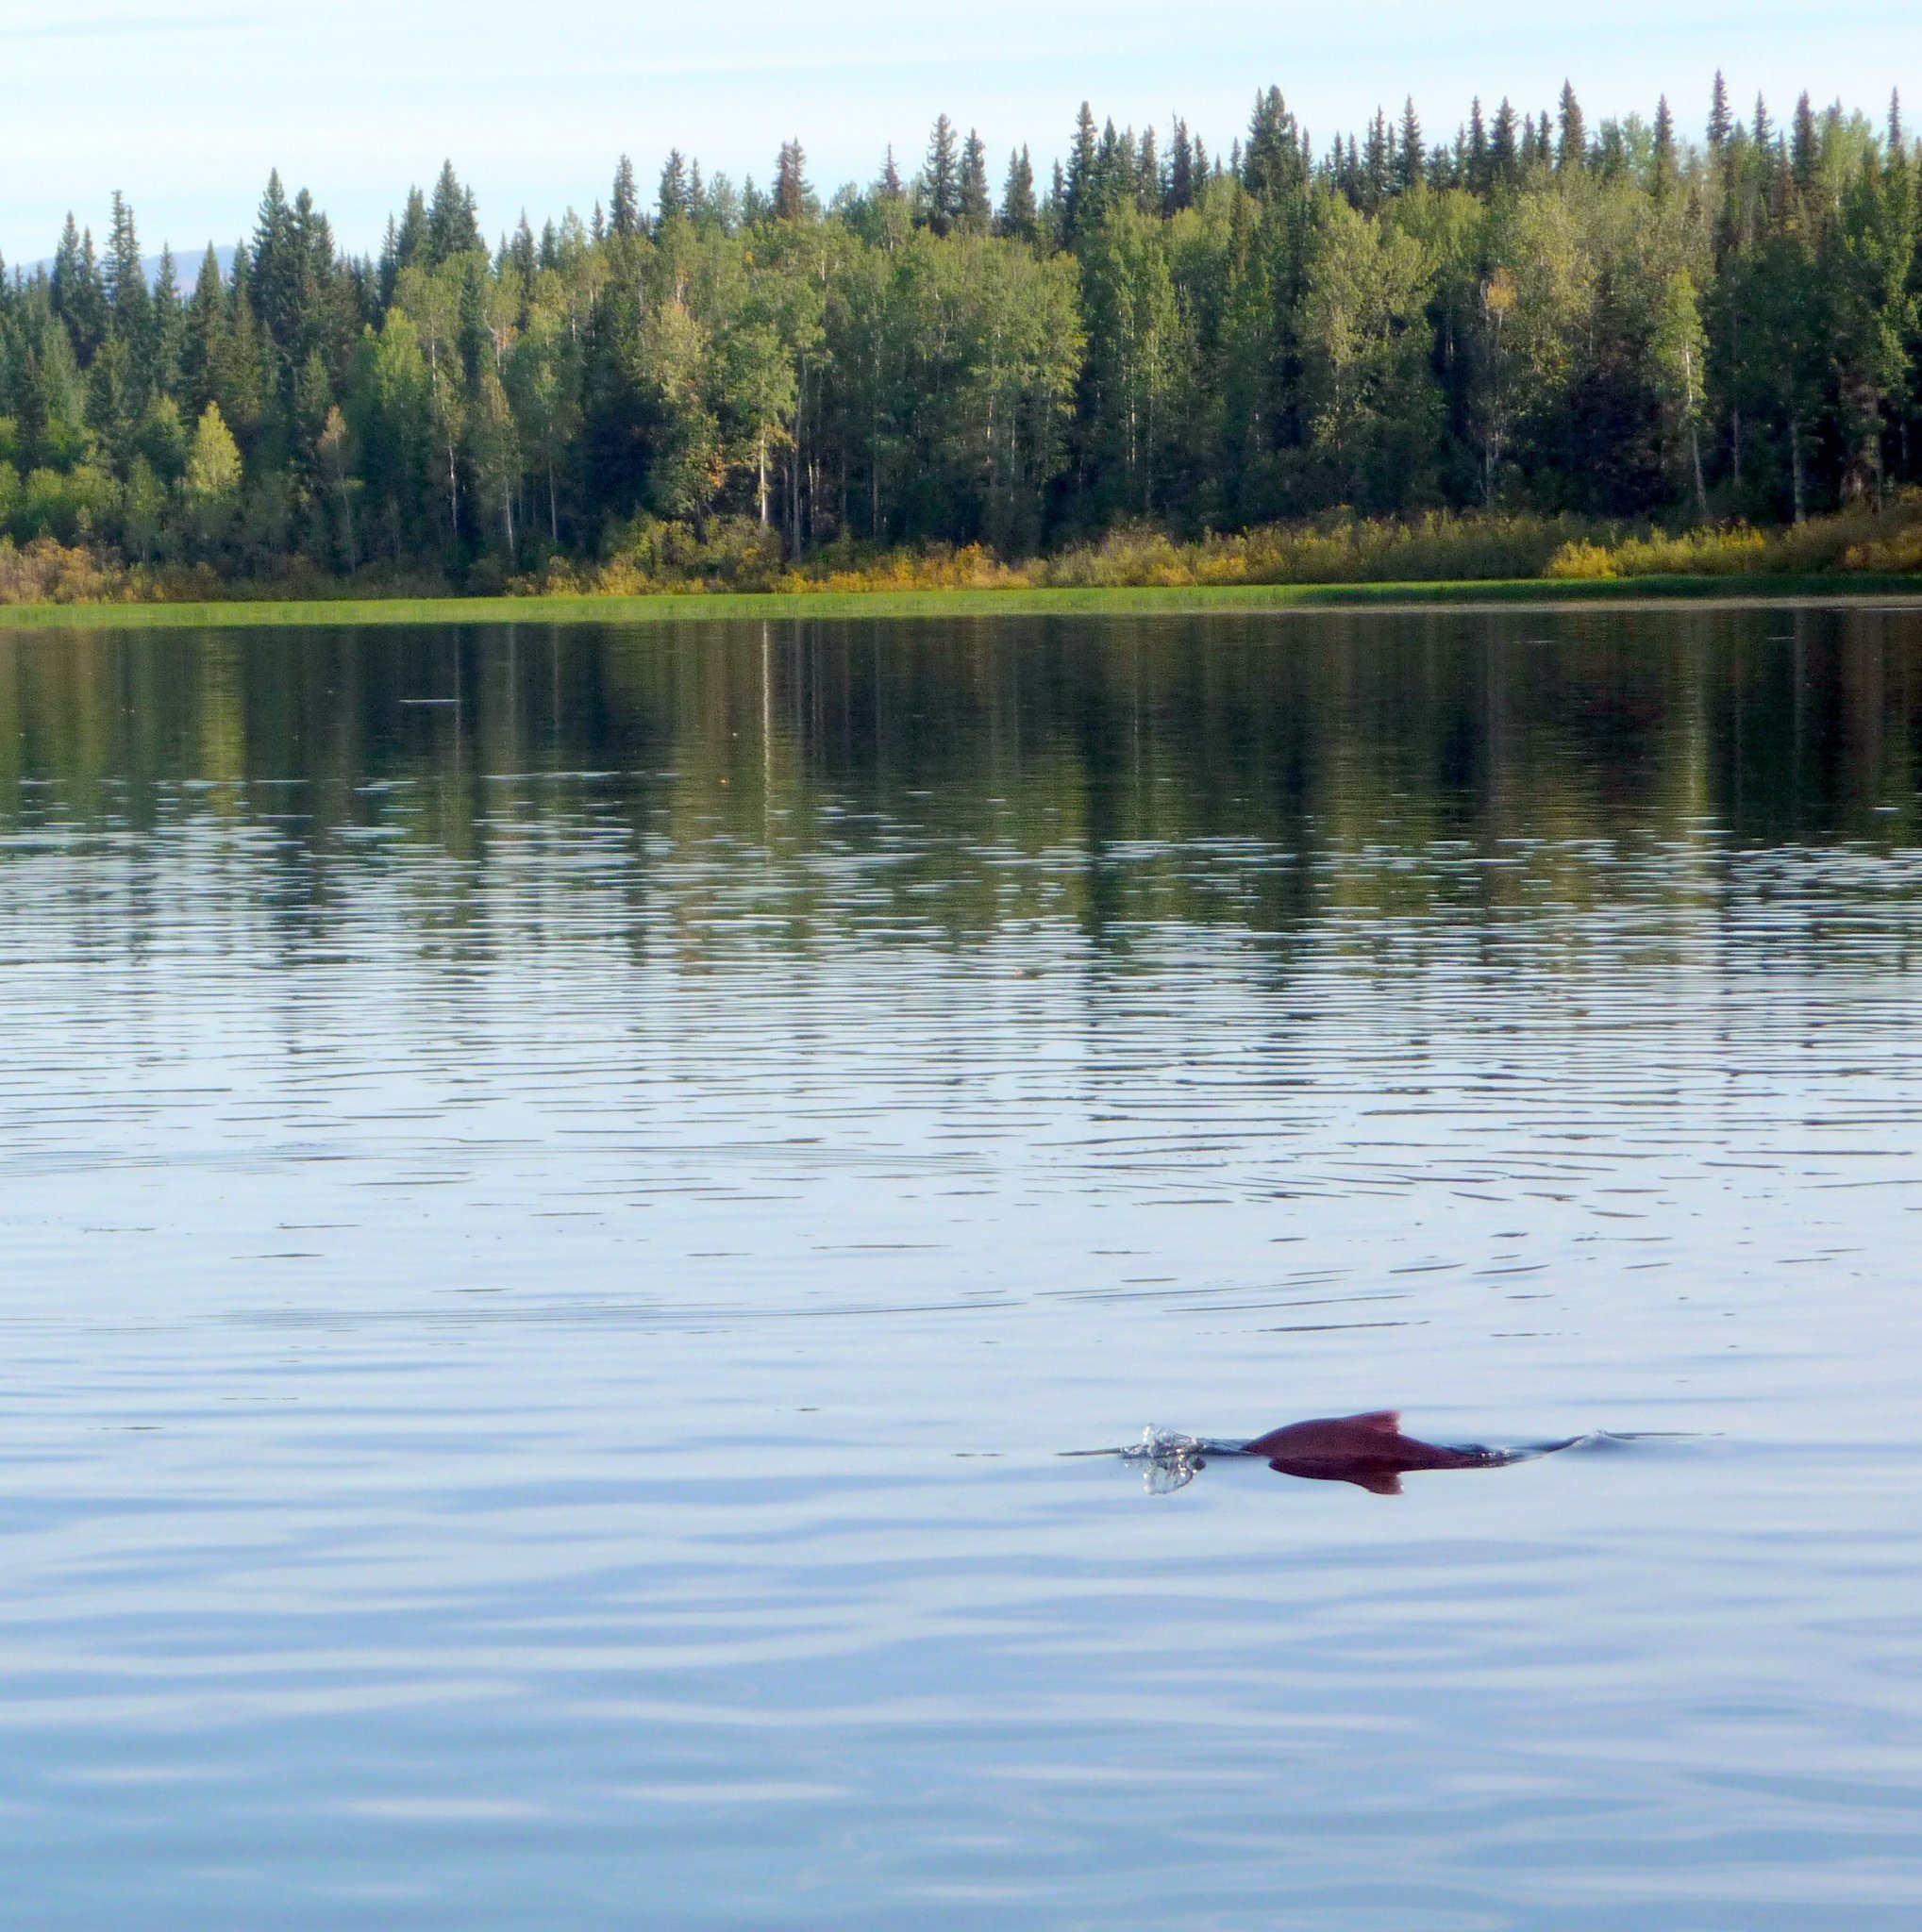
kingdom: Animalia
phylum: Chordata
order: Salmoniformes
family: Salmonidae
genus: Oncorhynchus
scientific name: Oncorhynchus nerka
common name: Sockeye salmon
